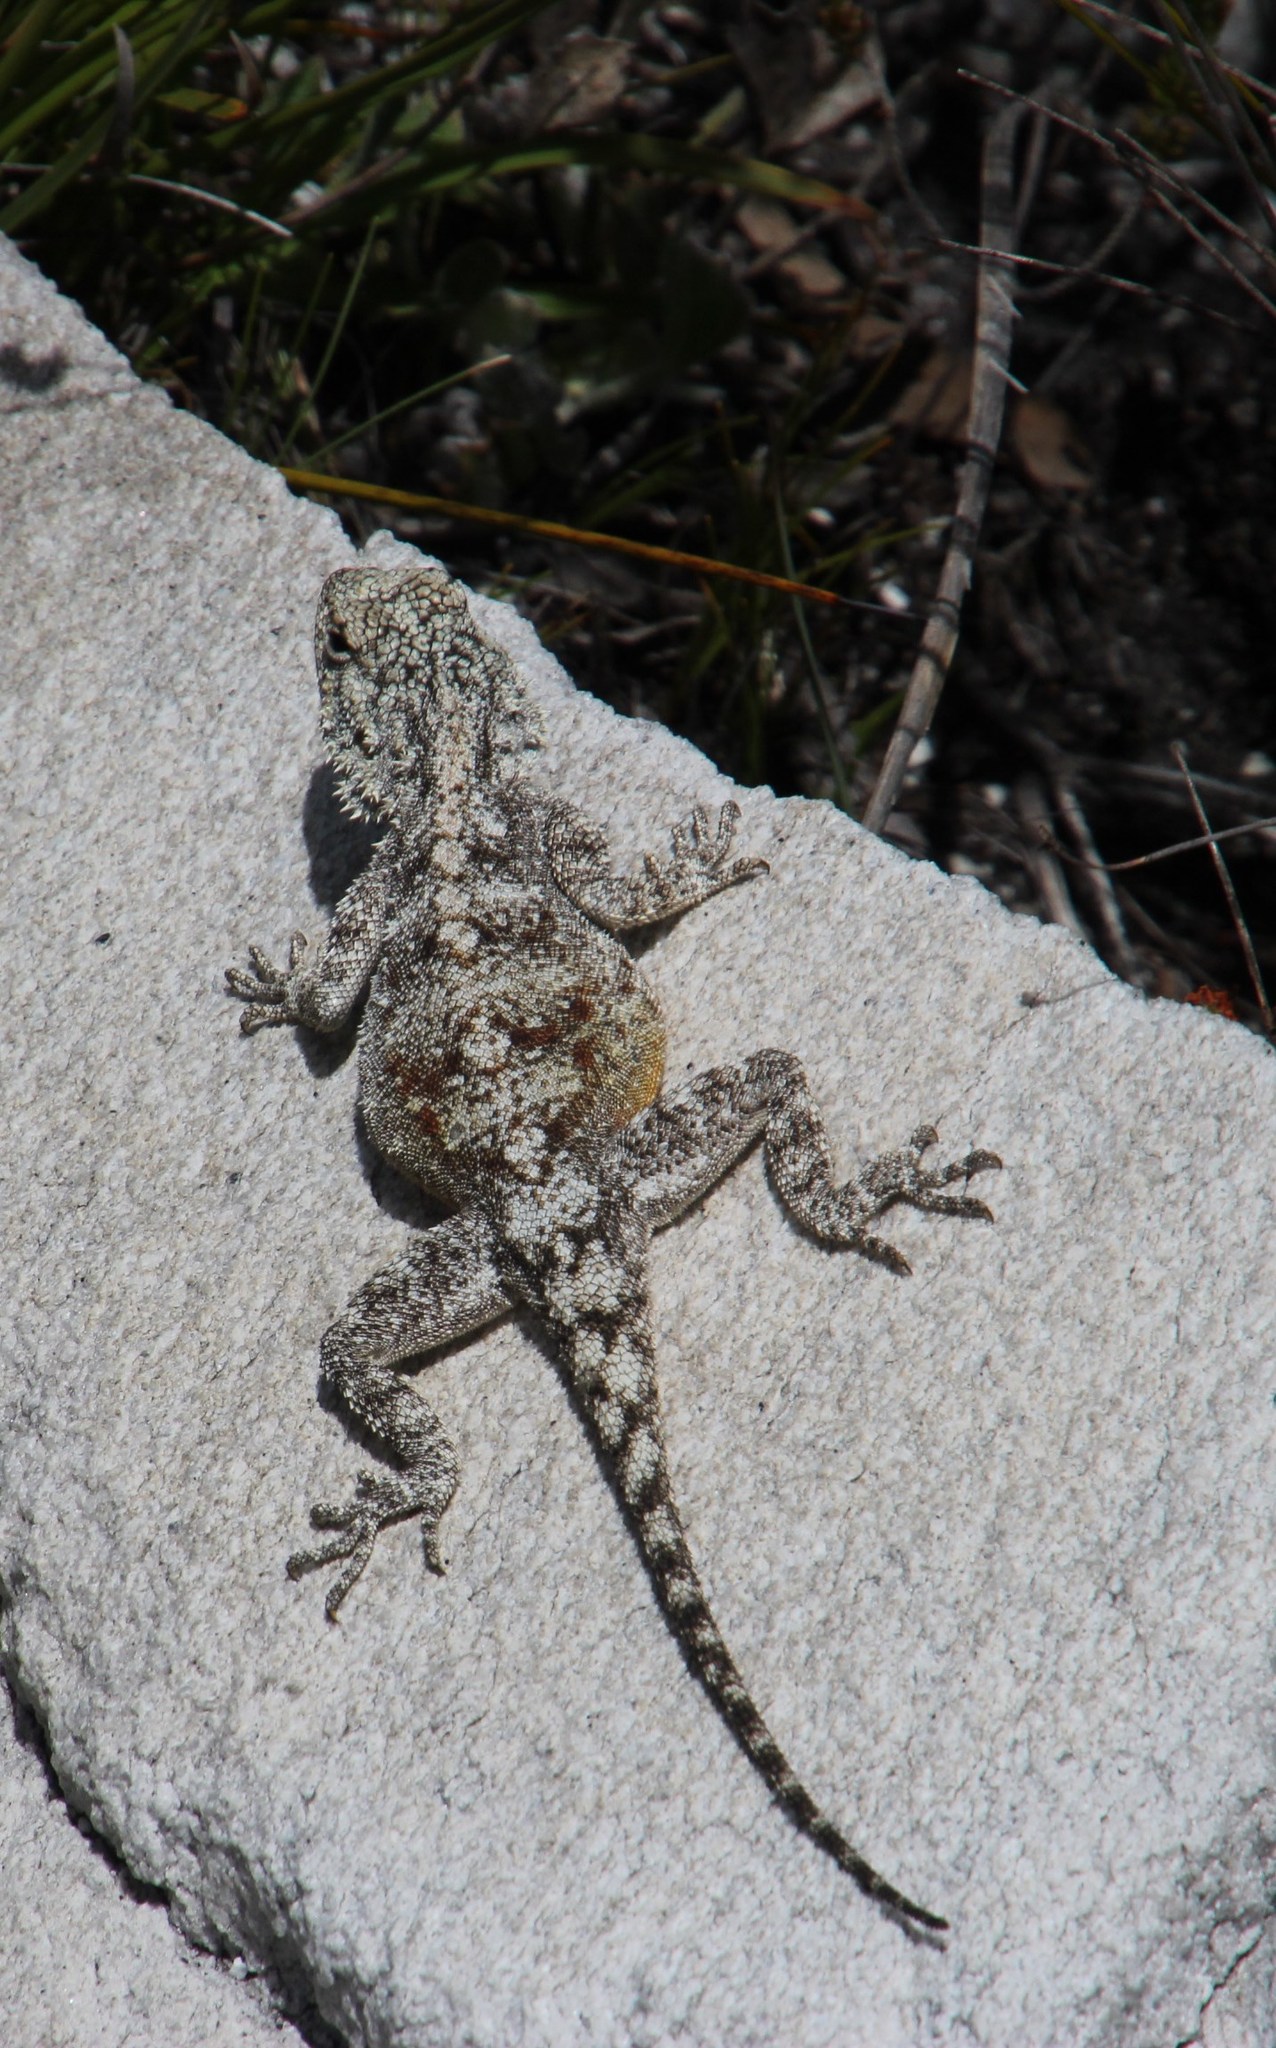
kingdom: Animalia
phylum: Chordata
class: Squamata
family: Agamidae
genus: Agama
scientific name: Agama atra
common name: Southern african rock agama
